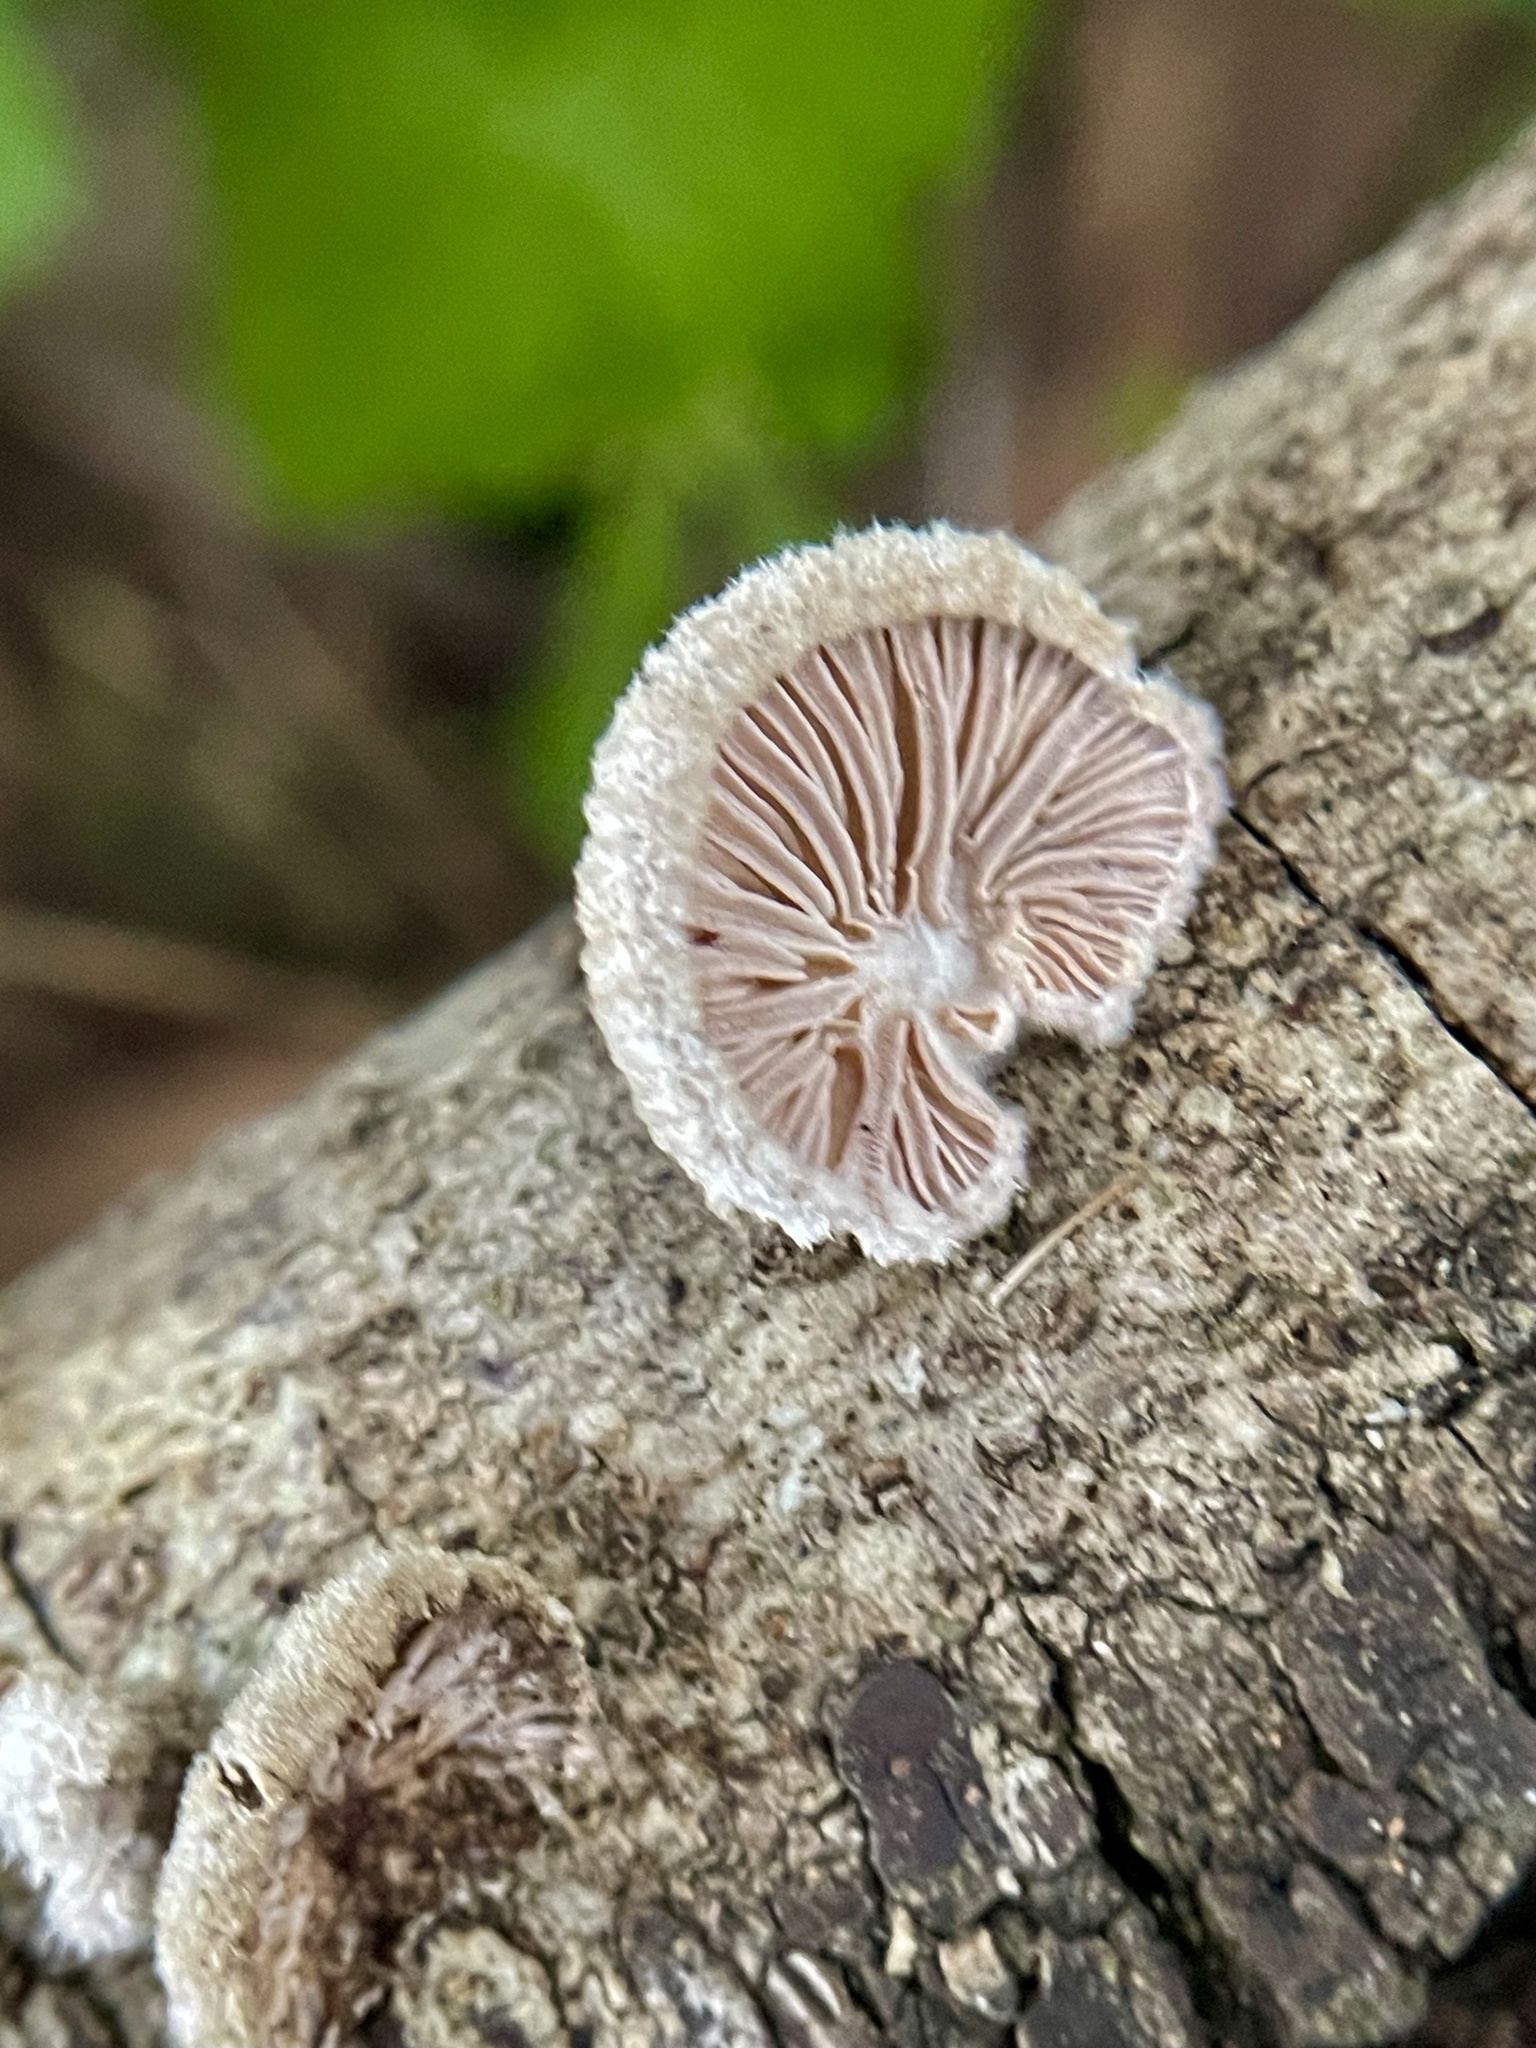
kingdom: Fungi
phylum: Basidiomycota
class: Agaricomycetes
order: Agaricales
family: Schizophyllaceae
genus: Schizophyllum
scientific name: Schizophyllum commune
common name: Common porecrust
